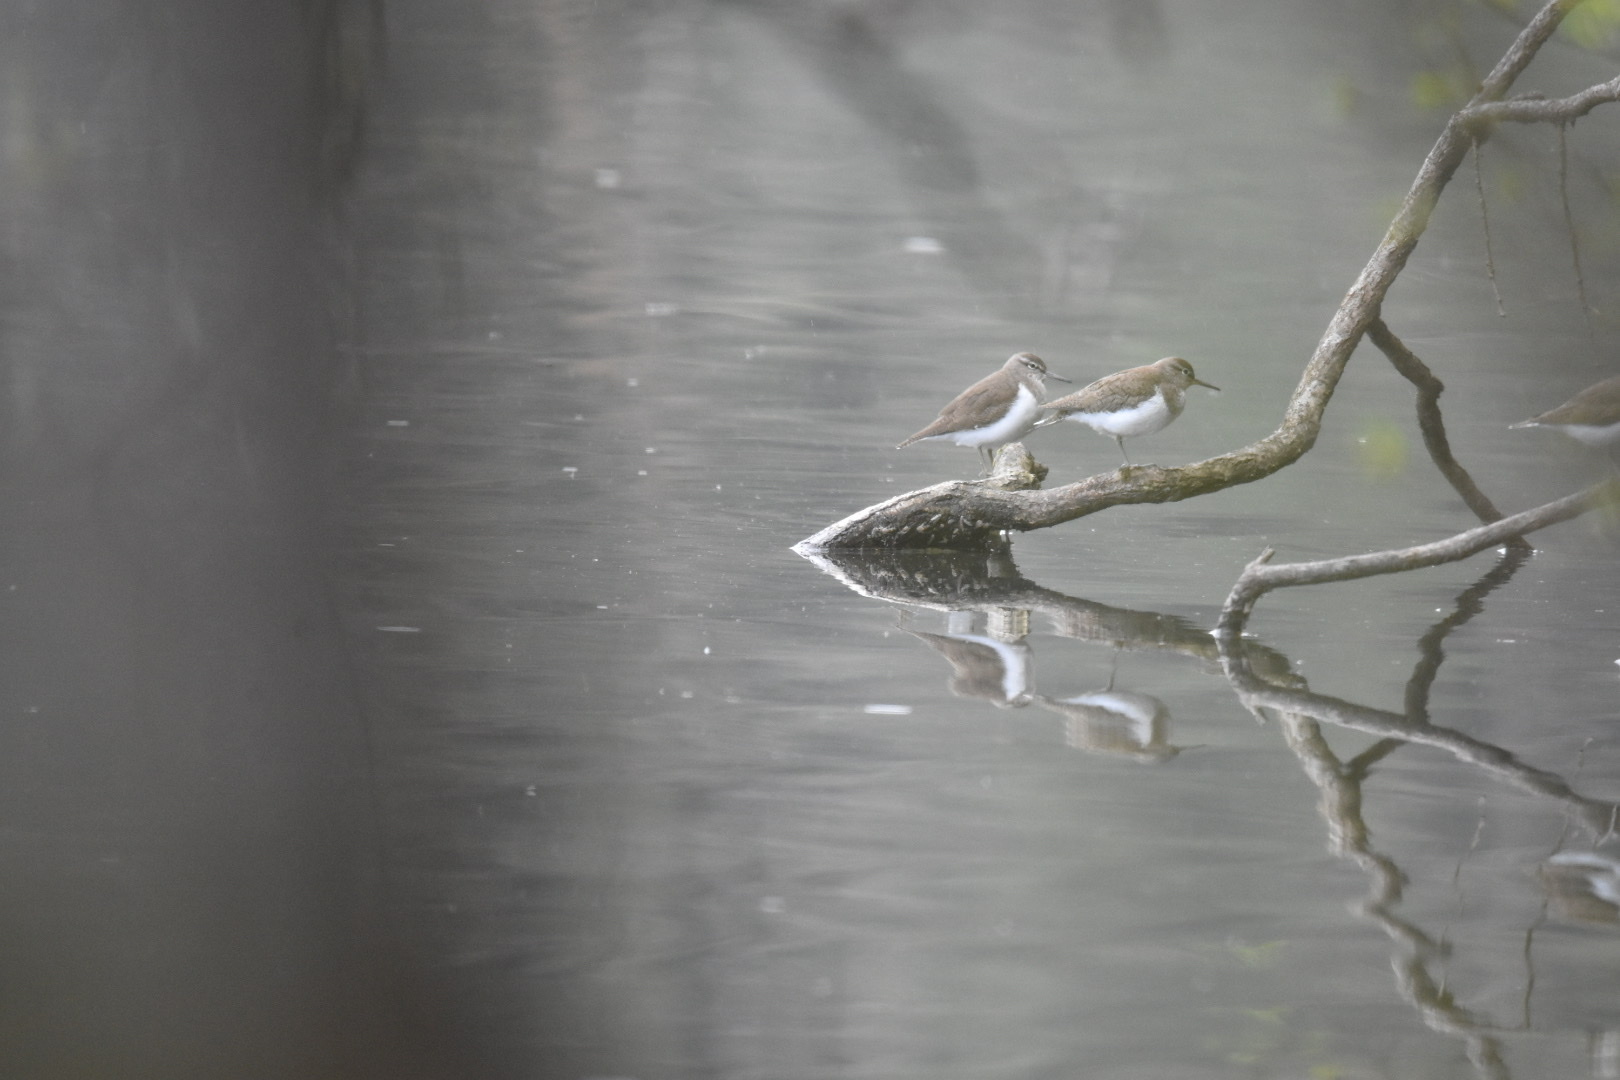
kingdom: Animalia
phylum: Chordata
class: Aves
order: Charadriiformes
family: Scolopacidae
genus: Actitis
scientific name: Actitis hypoleucos
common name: Common sandpiper
